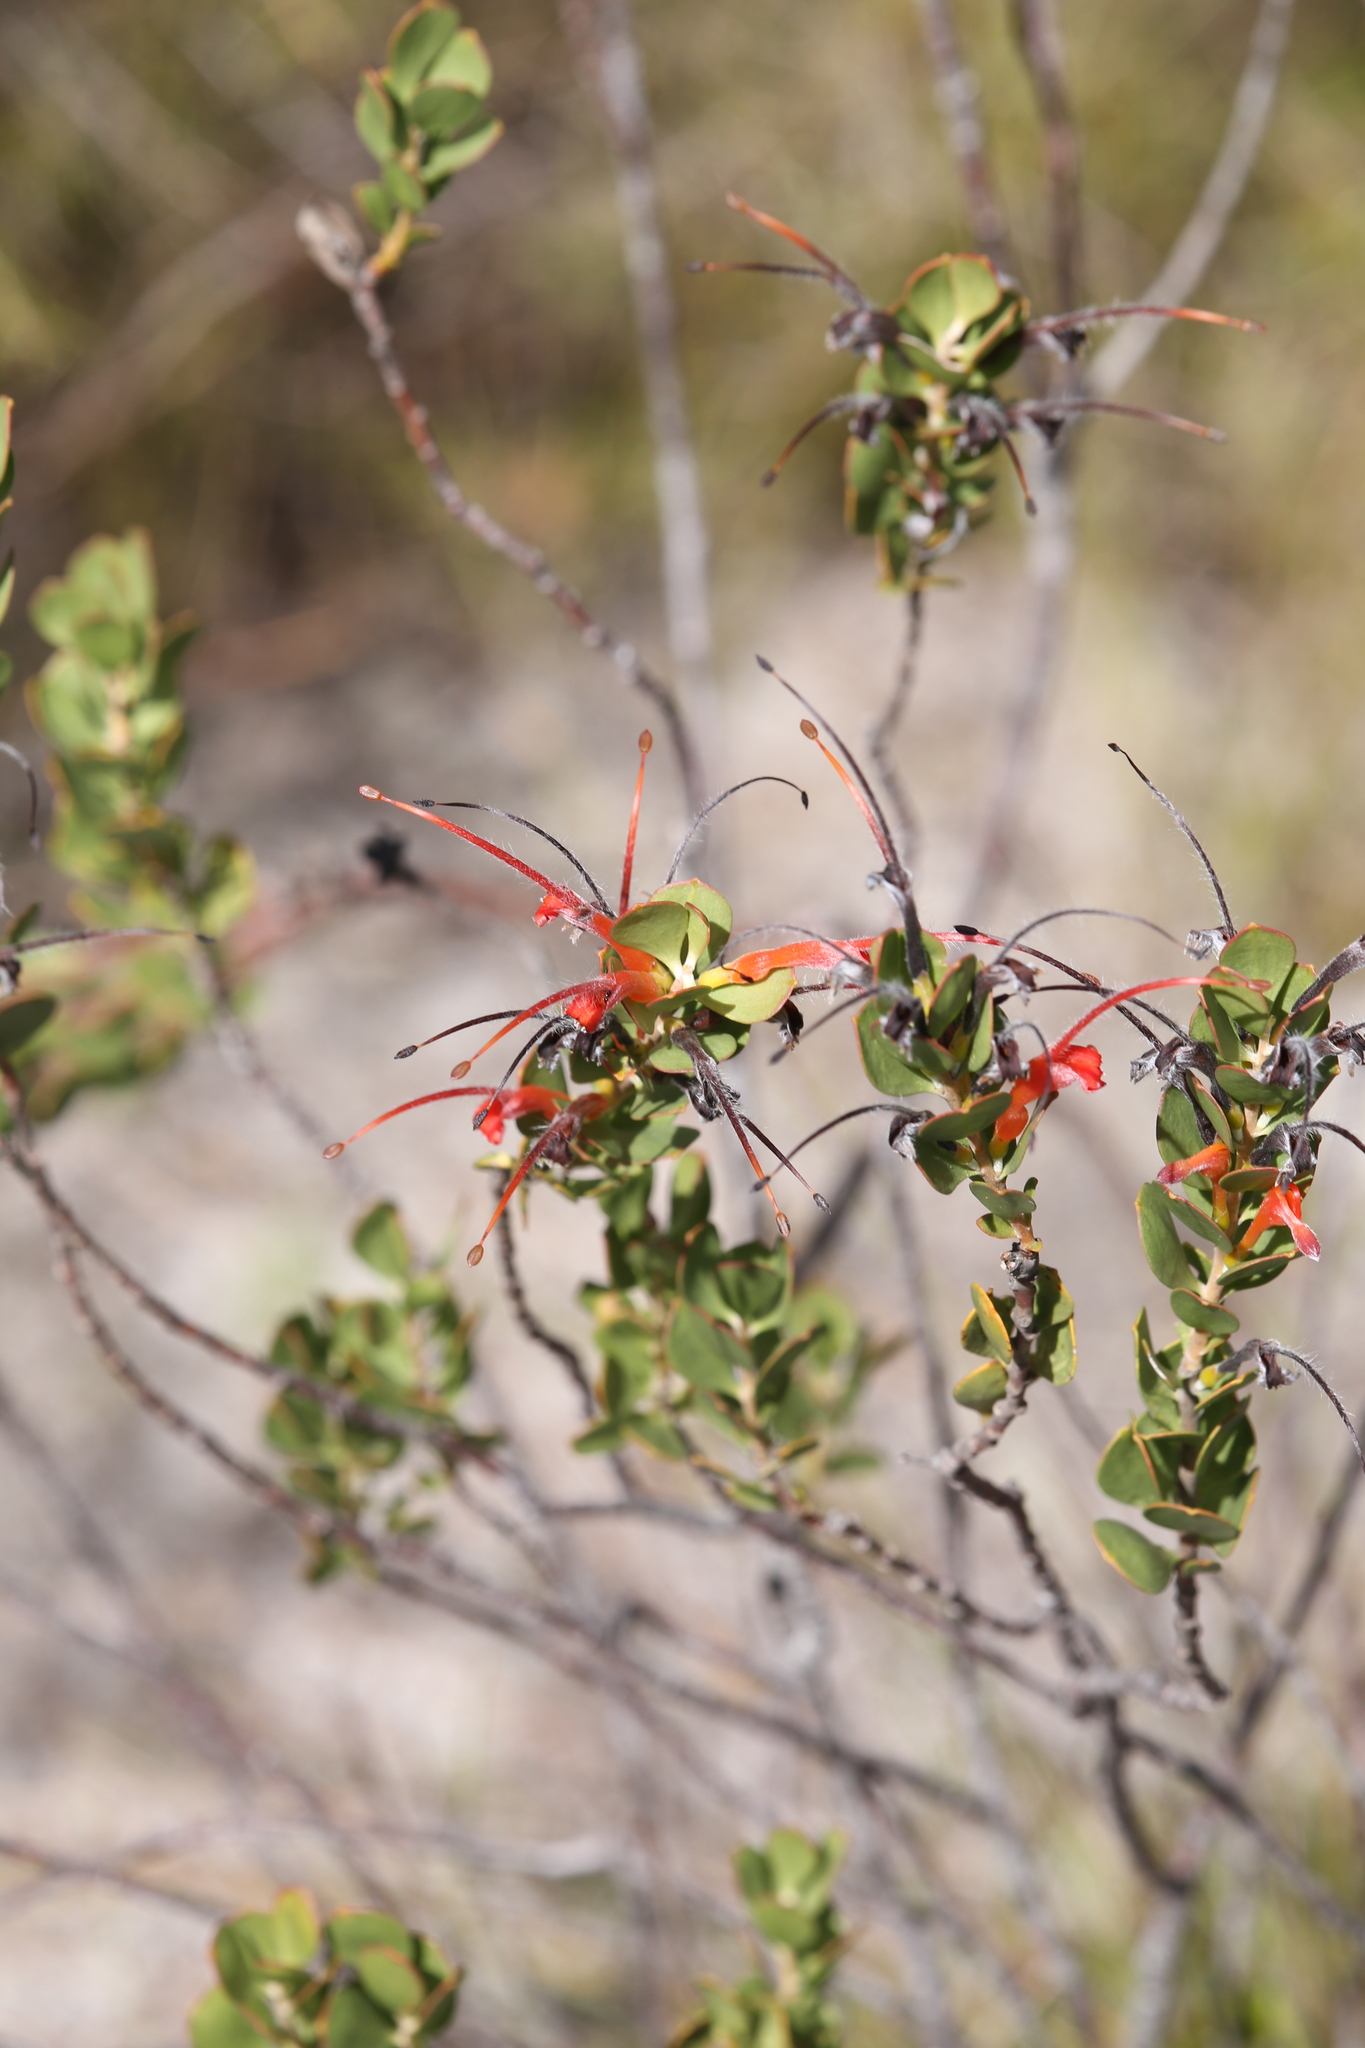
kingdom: Plantae
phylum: Tracheophyta
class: Magnoliopsida
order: Proteales
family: Proteaceae
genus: Adenanthos
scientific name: Adenanthos obovatus
